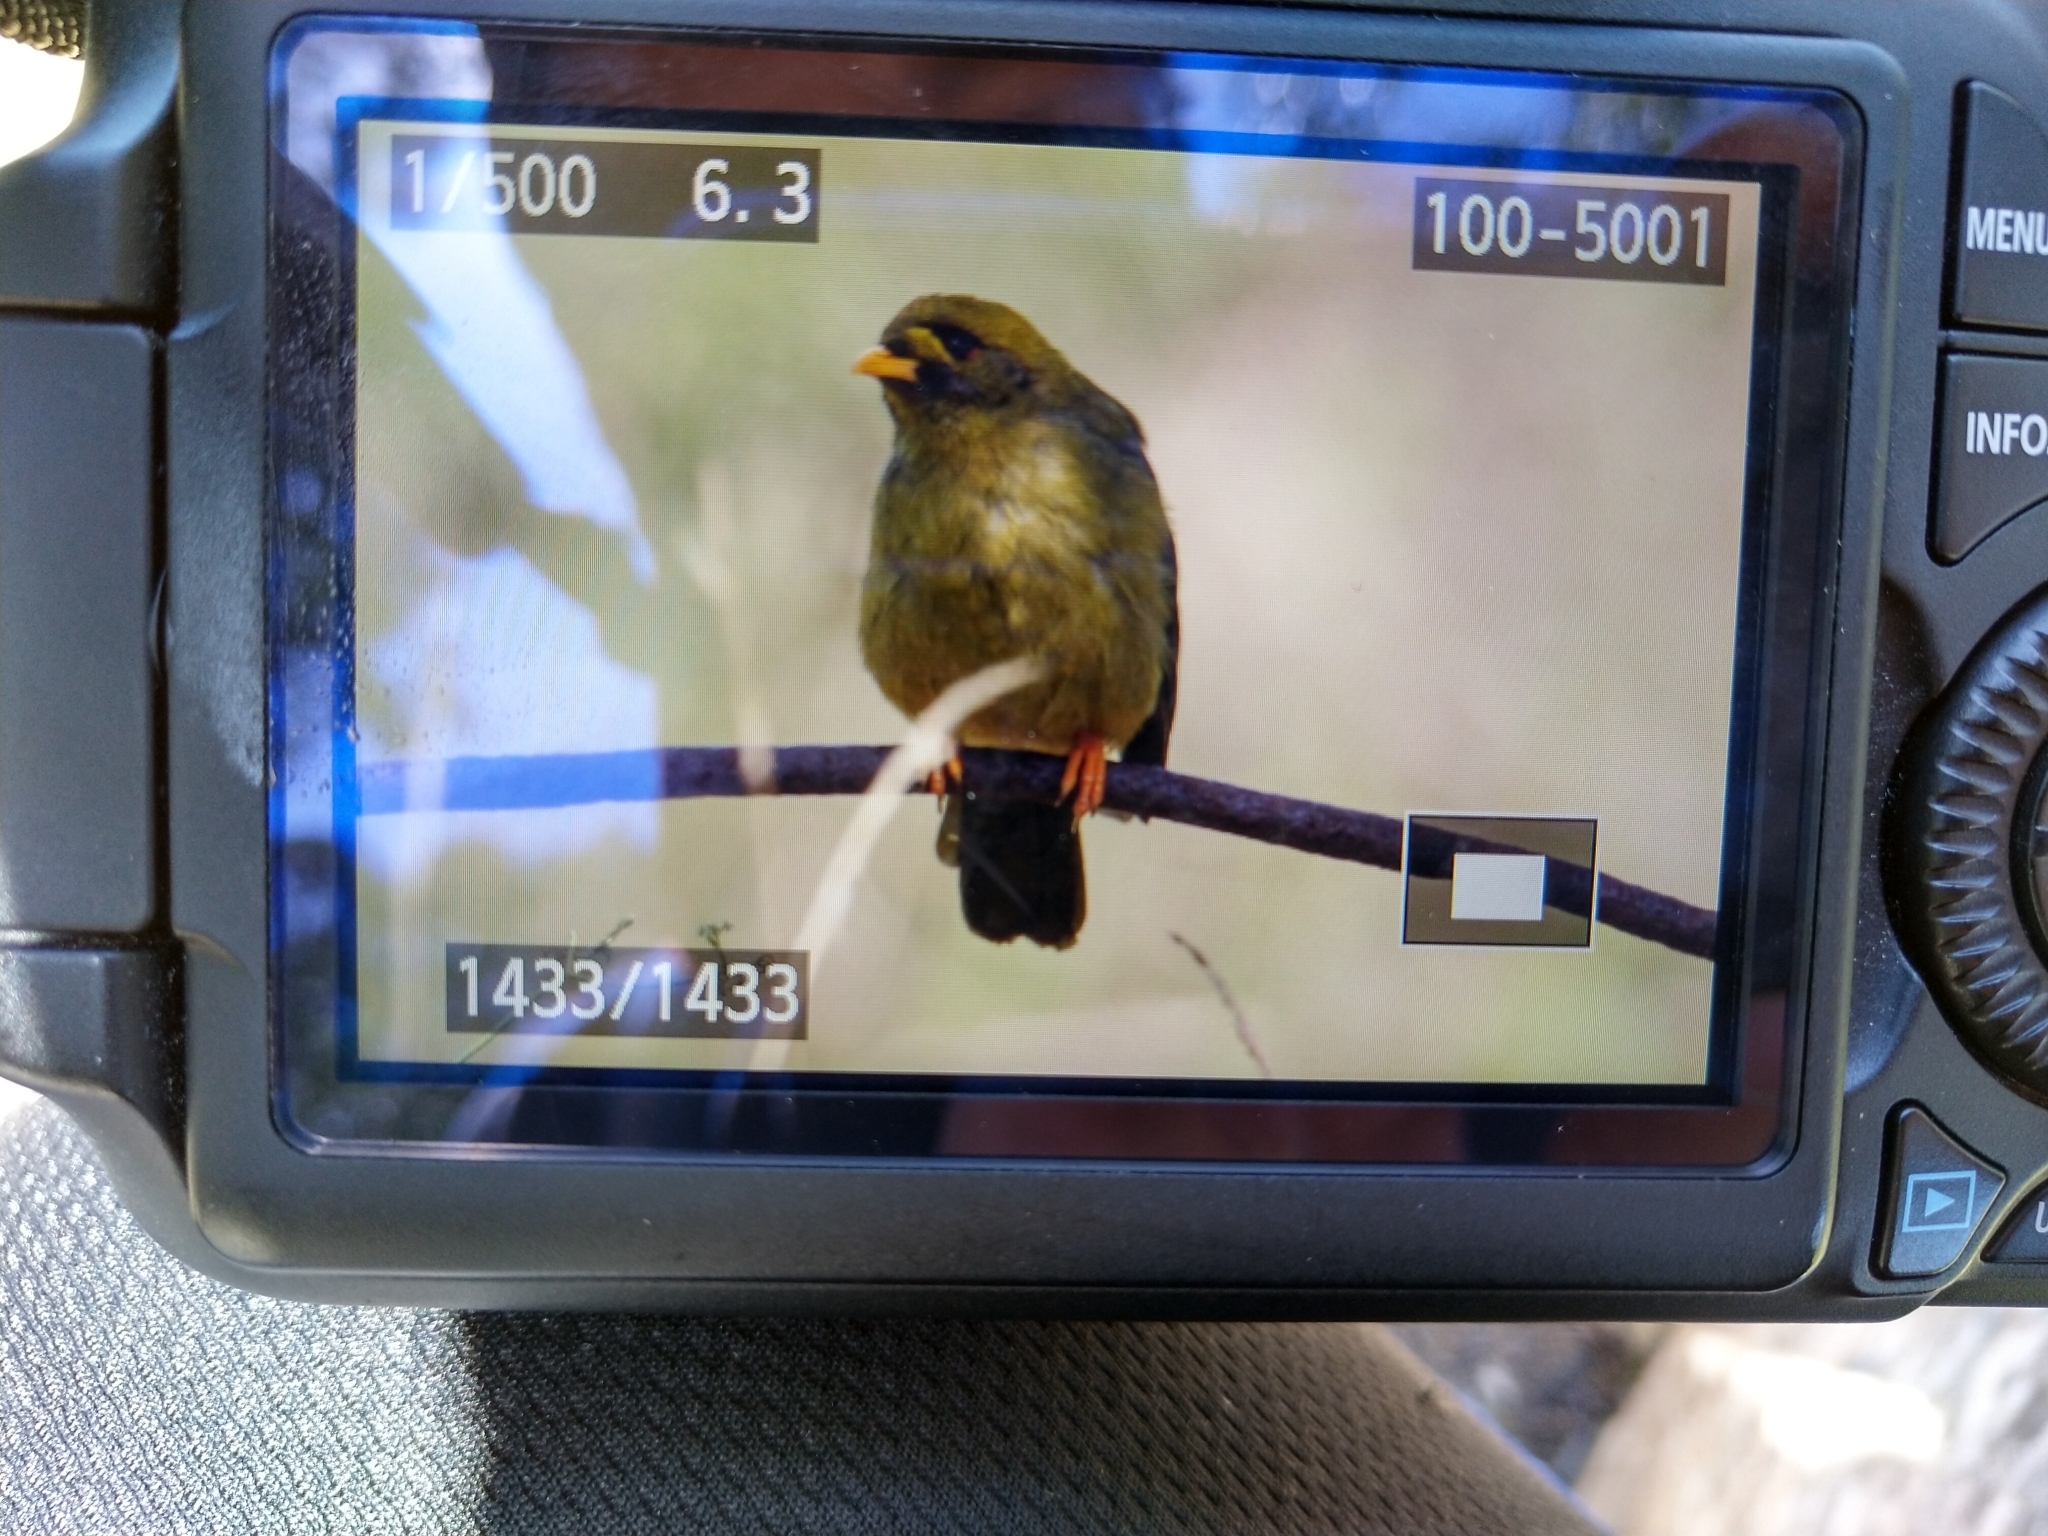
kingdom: Animalia
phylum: Chordata
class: Aves
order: Passeriformes
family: Meliphagidae
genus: Manorina
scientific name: Manorina melanophrys
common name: Bell miner
